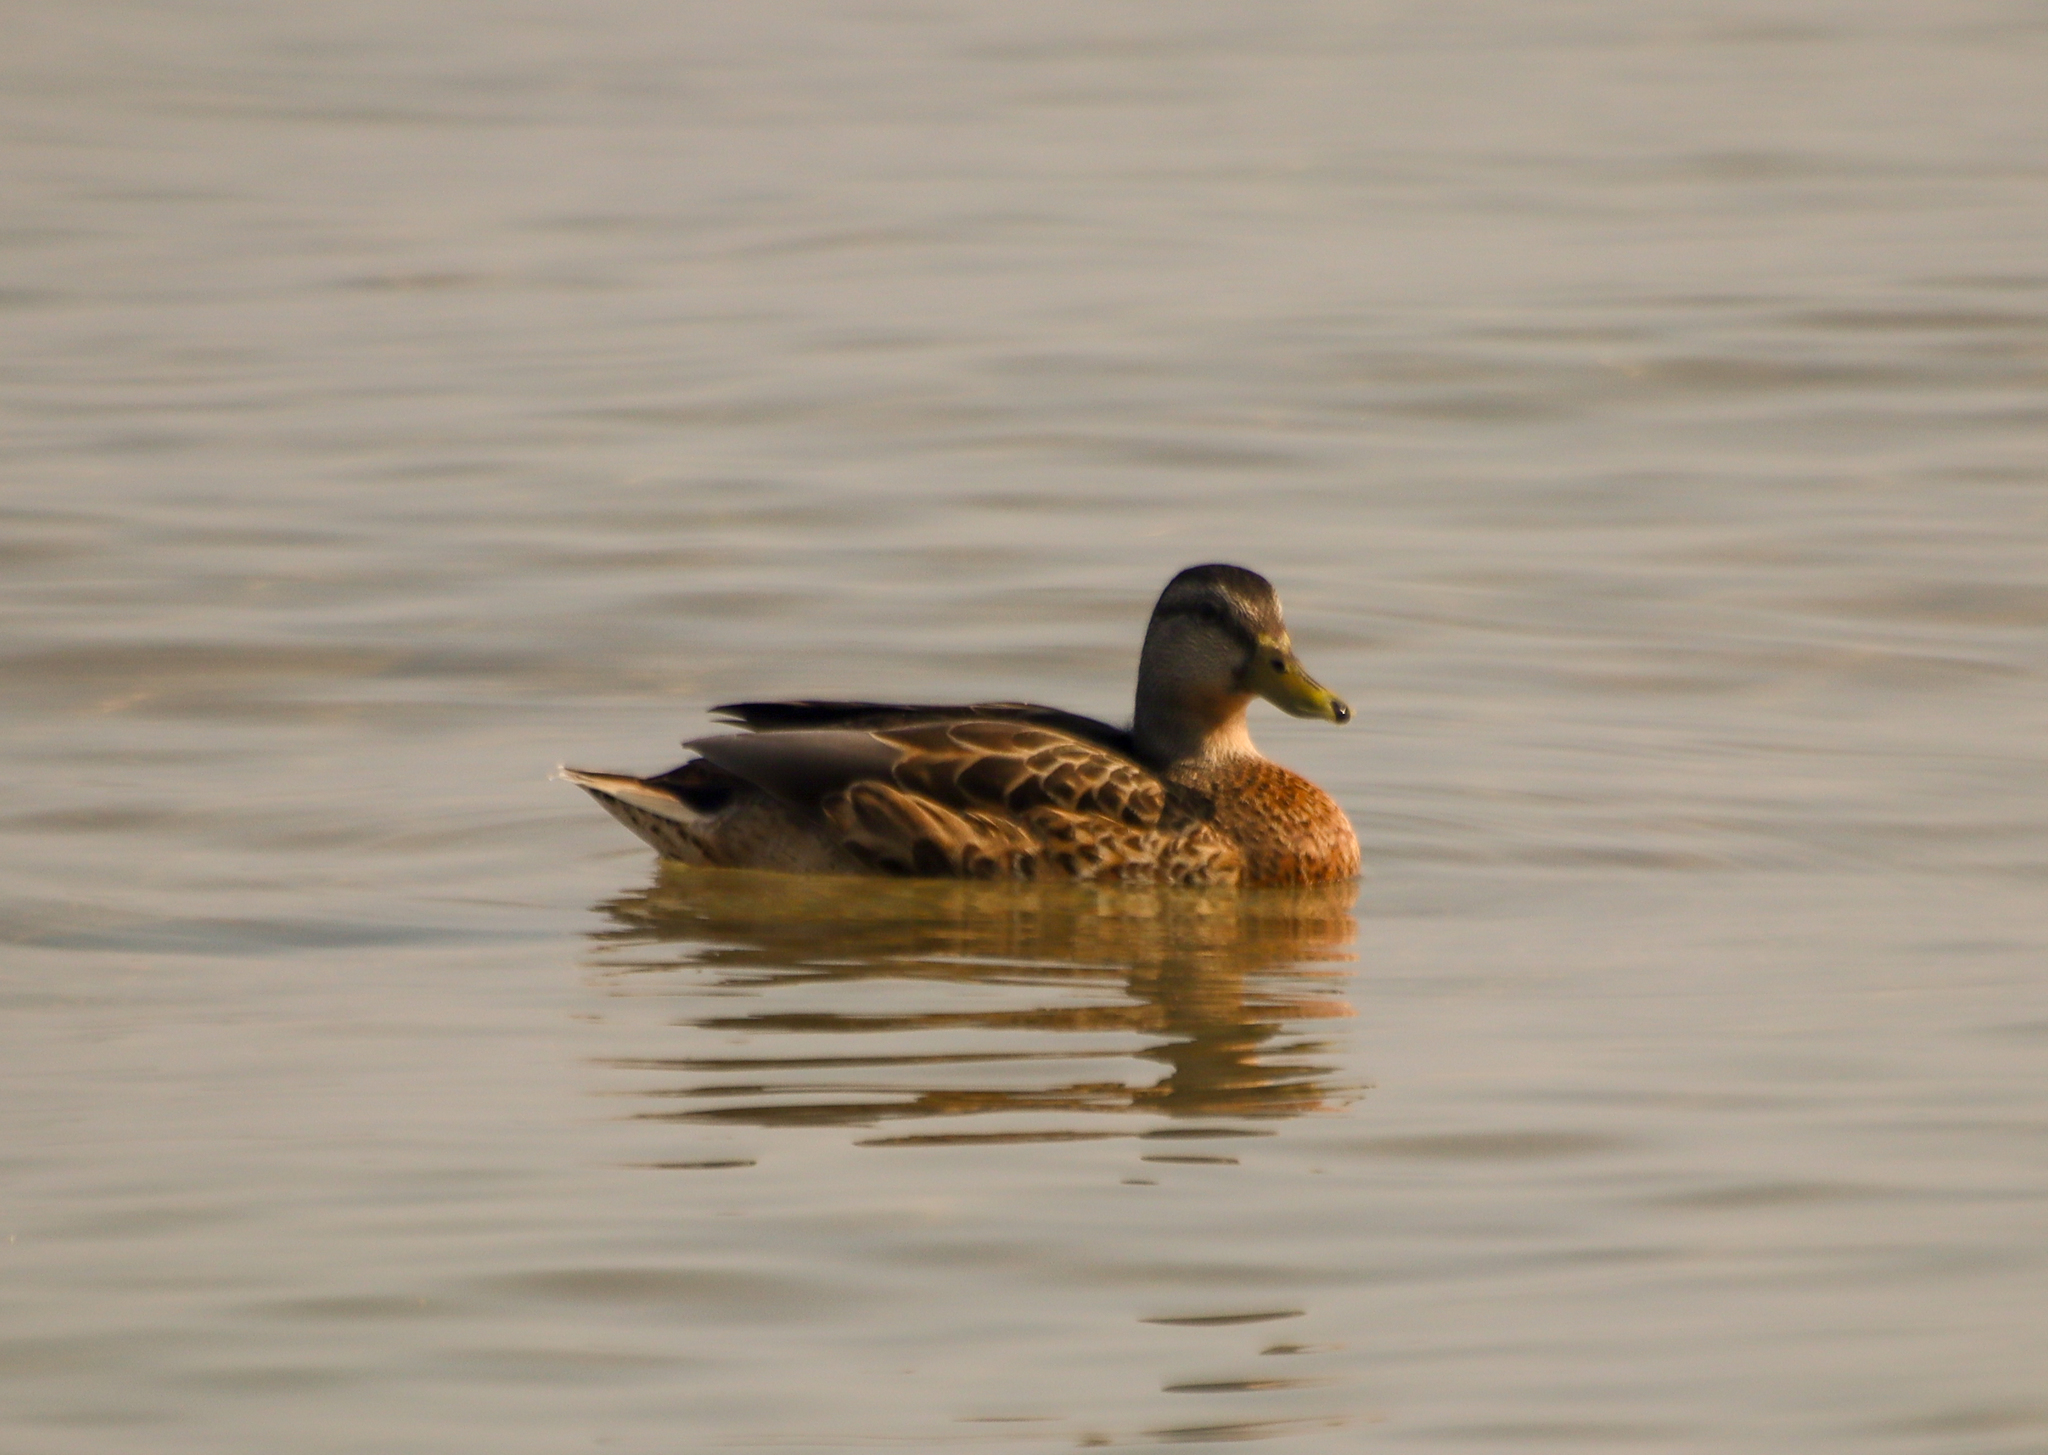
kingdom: Animalia
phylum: Chordata
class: Aves
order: Anseriformes
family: Anatidae
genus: Anas
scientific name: Anas platyrhynchos
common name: Mallard
